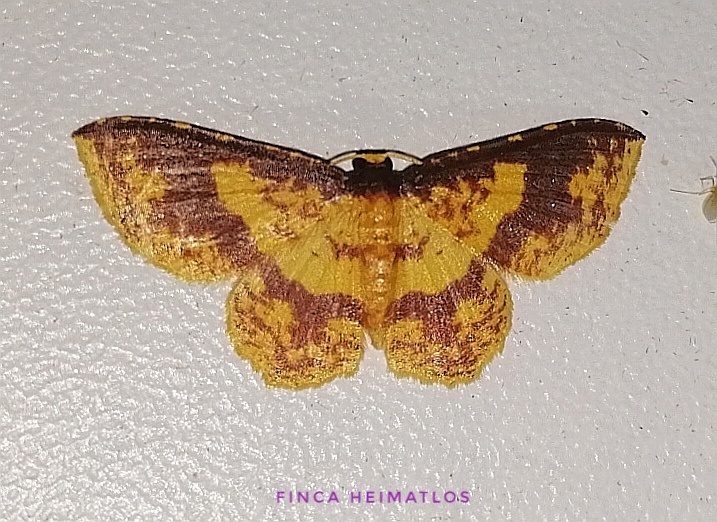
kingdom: Animalia
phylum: Arthropoda
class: Insecta
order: Lepidoptera
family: Geometridae
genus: Eois
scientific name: Eois guapa
